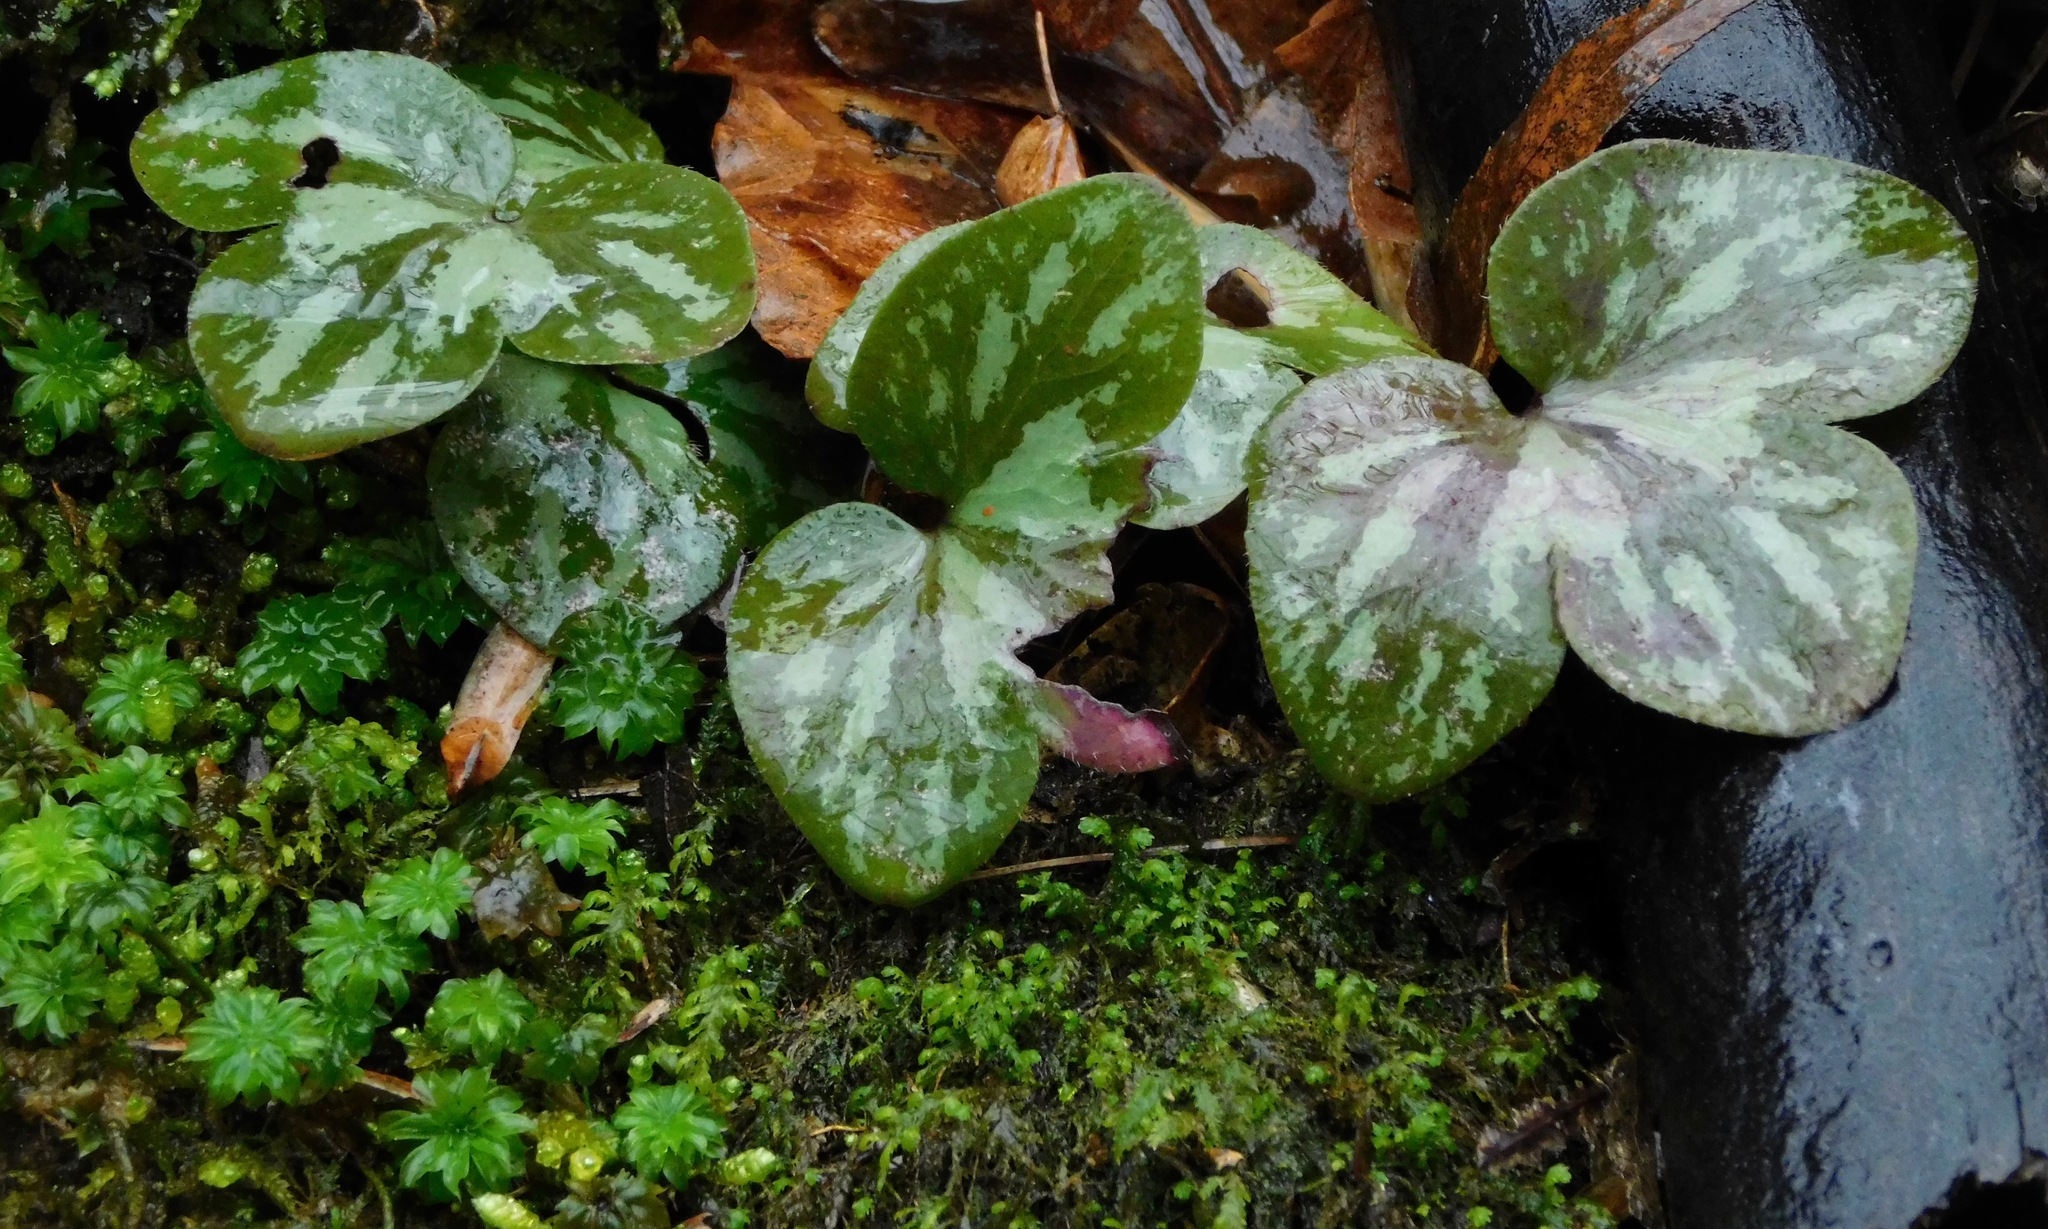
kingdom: Plantae
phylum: Tracheophyta
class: Magnoliopsida
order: Ranunculales
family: Ranunculaceae
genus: Hepatica
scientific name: Hepatica americana
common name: American hepatica
